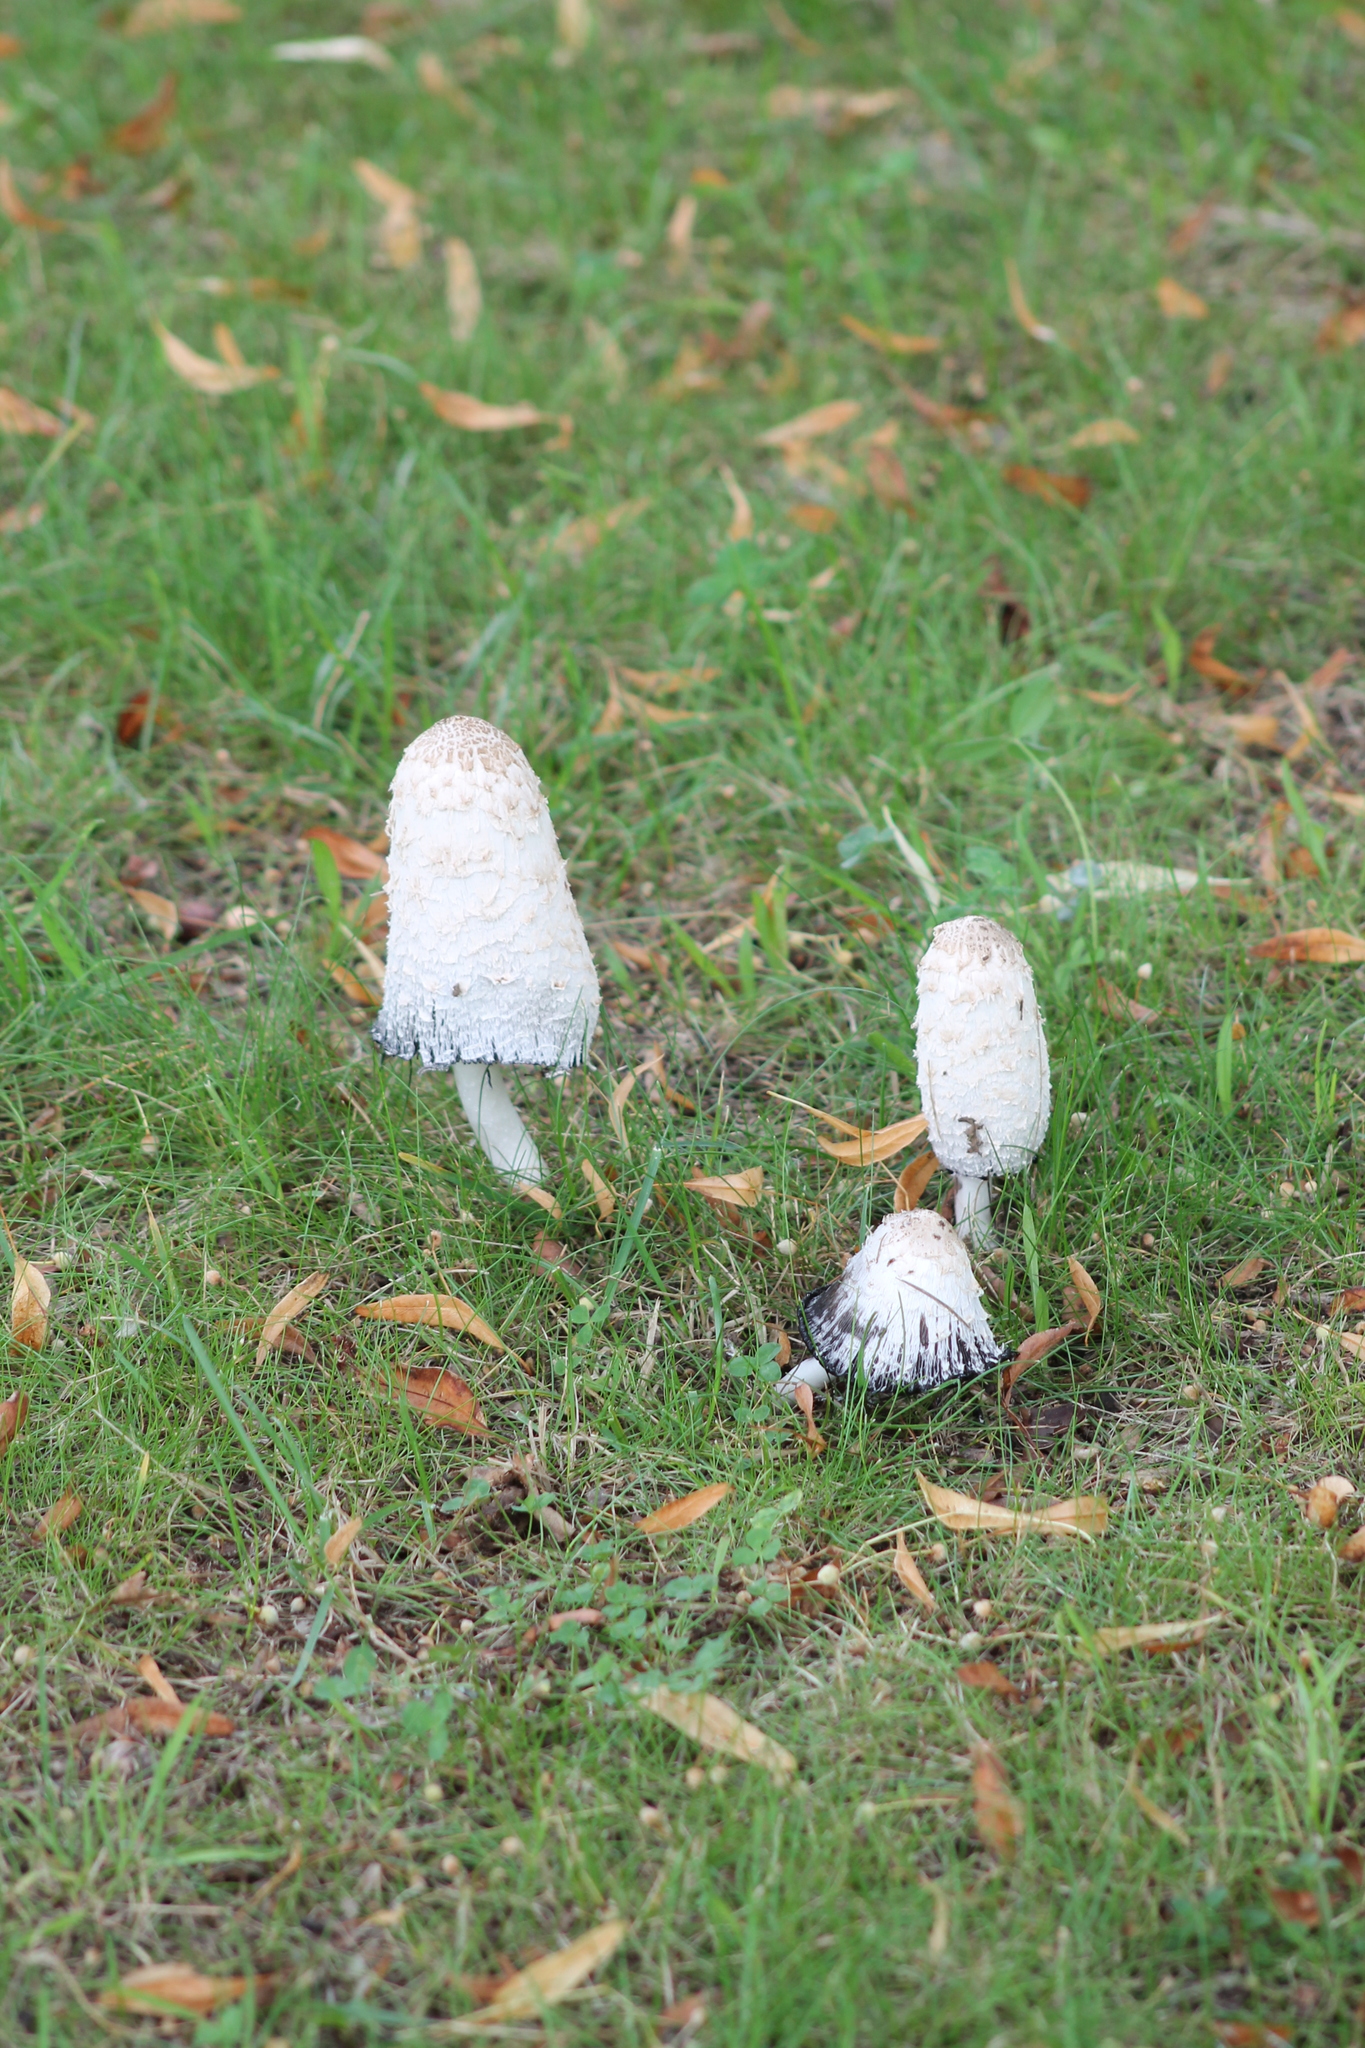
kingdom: Fungi
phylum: Basidiomycota
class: Agaricomycetes
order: Agaricales
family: Agaricaceae
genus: Coprinus
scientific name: Coprinus comatus
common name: Lawyer's wig
